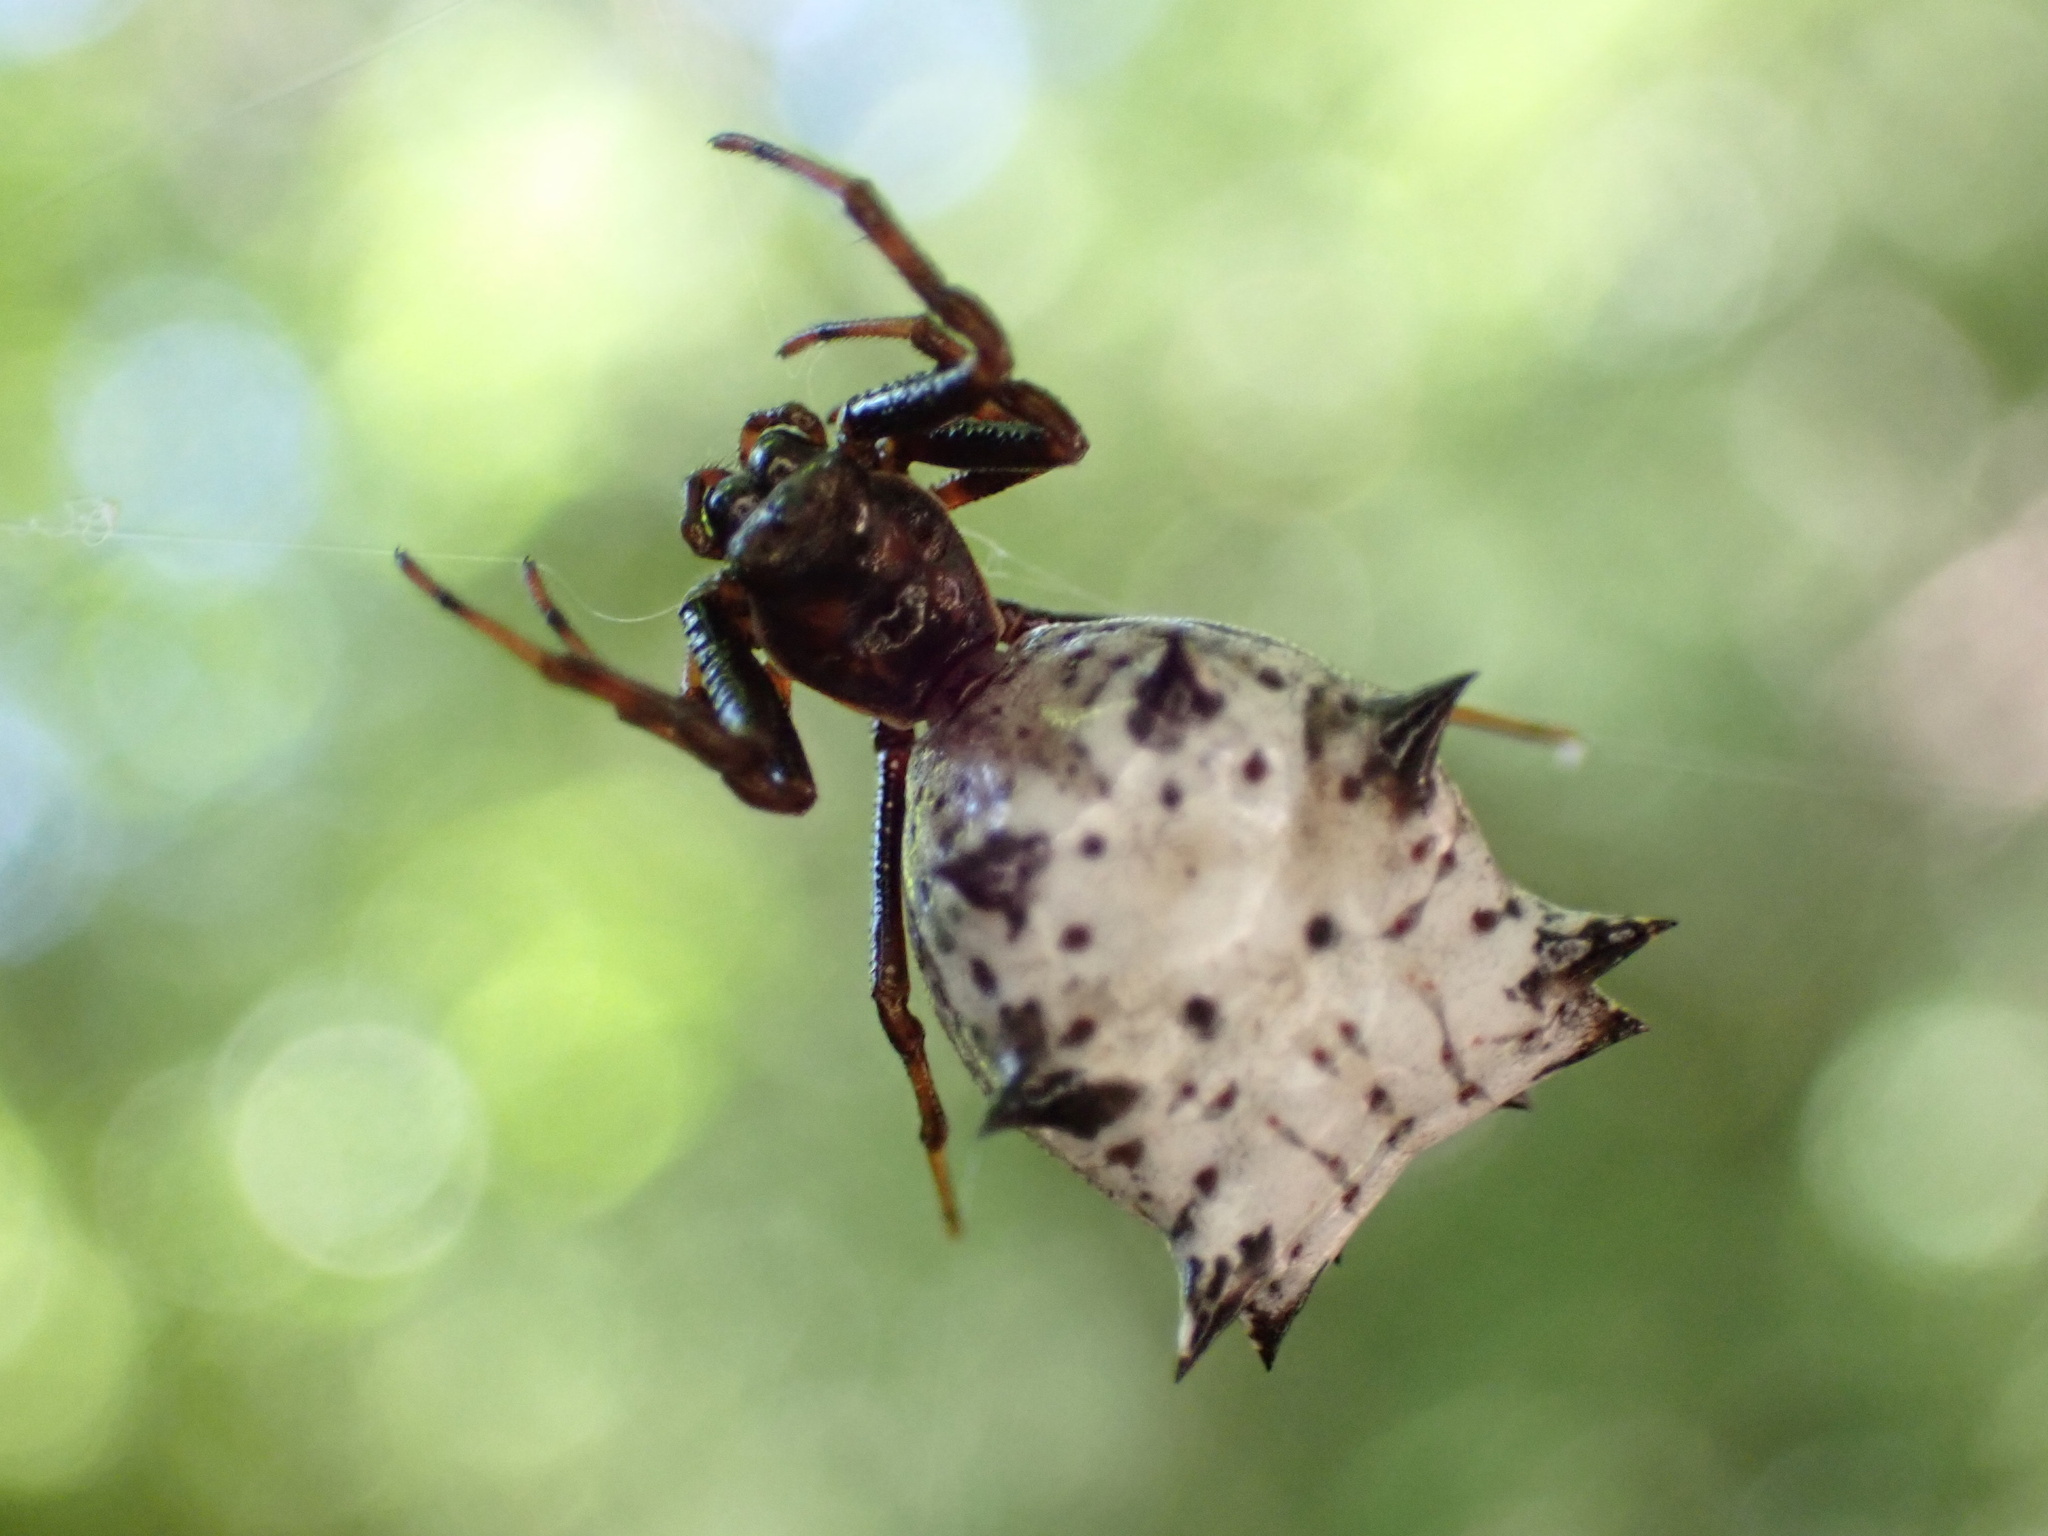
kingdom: Animalia
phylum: Arthropoda
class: Arachnida
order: Araneae
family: Araneidae
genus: Micrathena
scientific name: Micrathena gracilis
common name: Orb weavers
